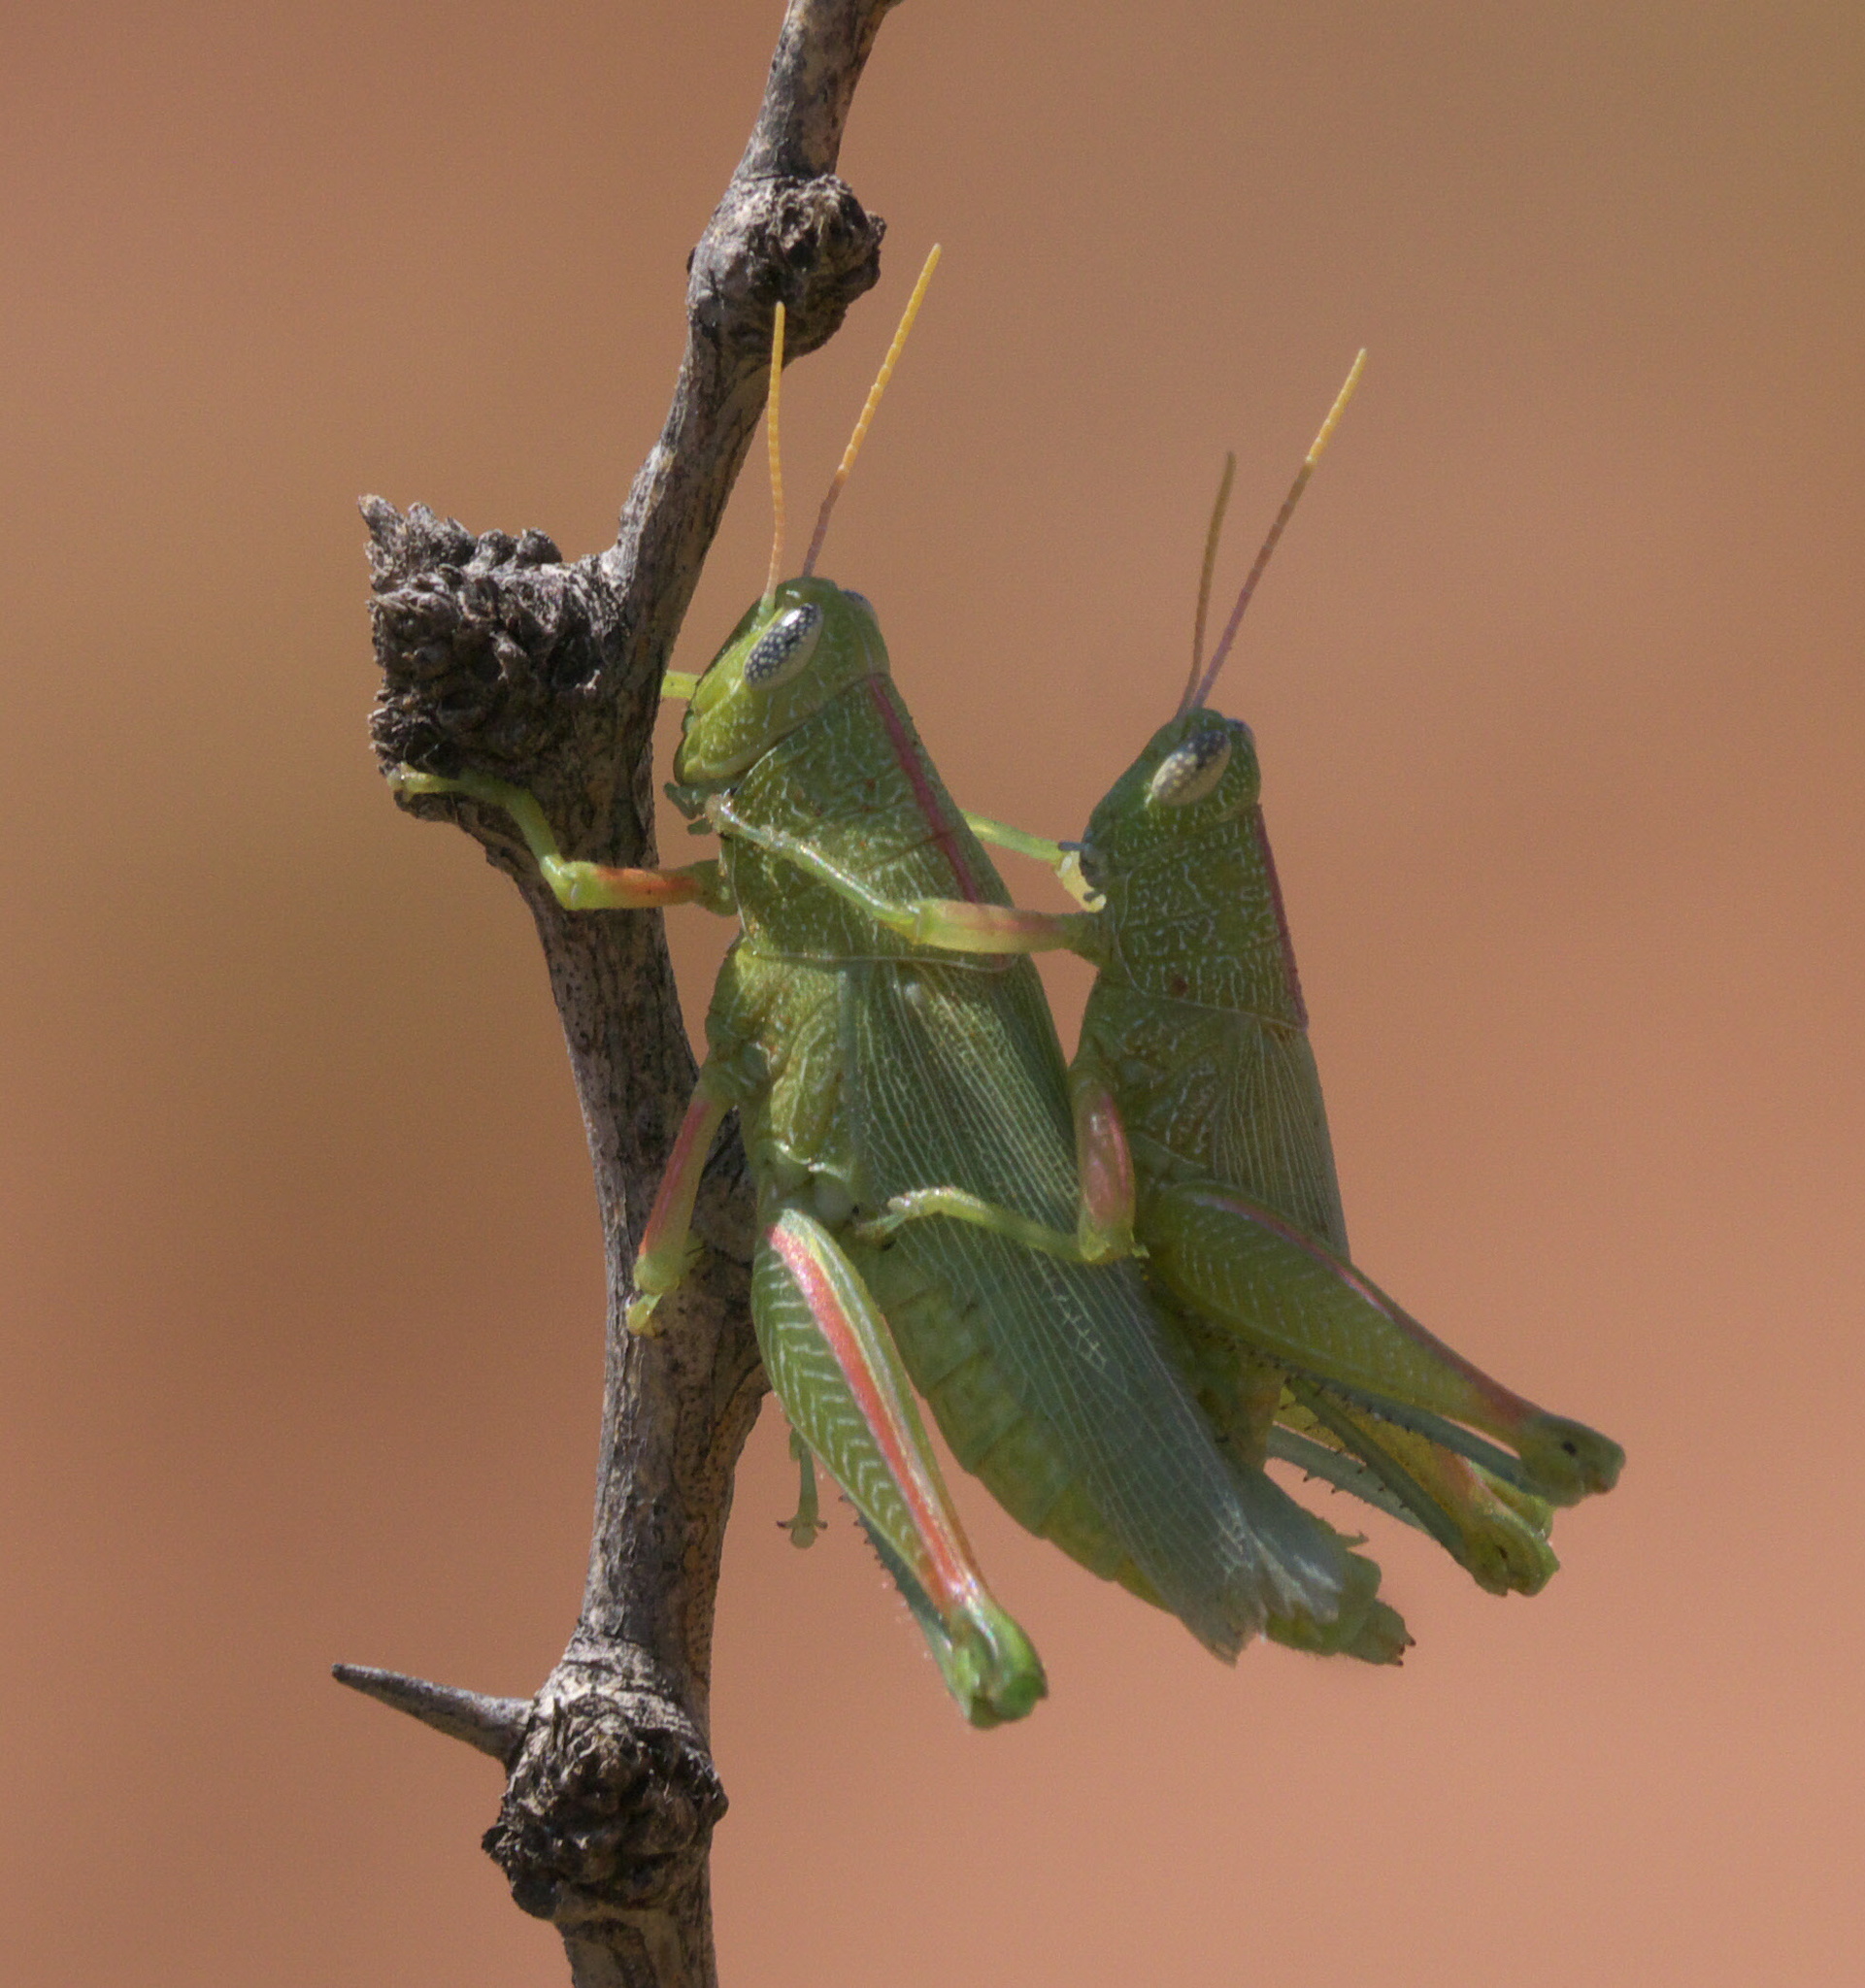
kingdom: Animalia
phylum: Arthropoda
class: Insecta
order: Orthoptera
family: Acrididae
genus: Hesperotettix
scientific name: Hesperotettix speciosus
